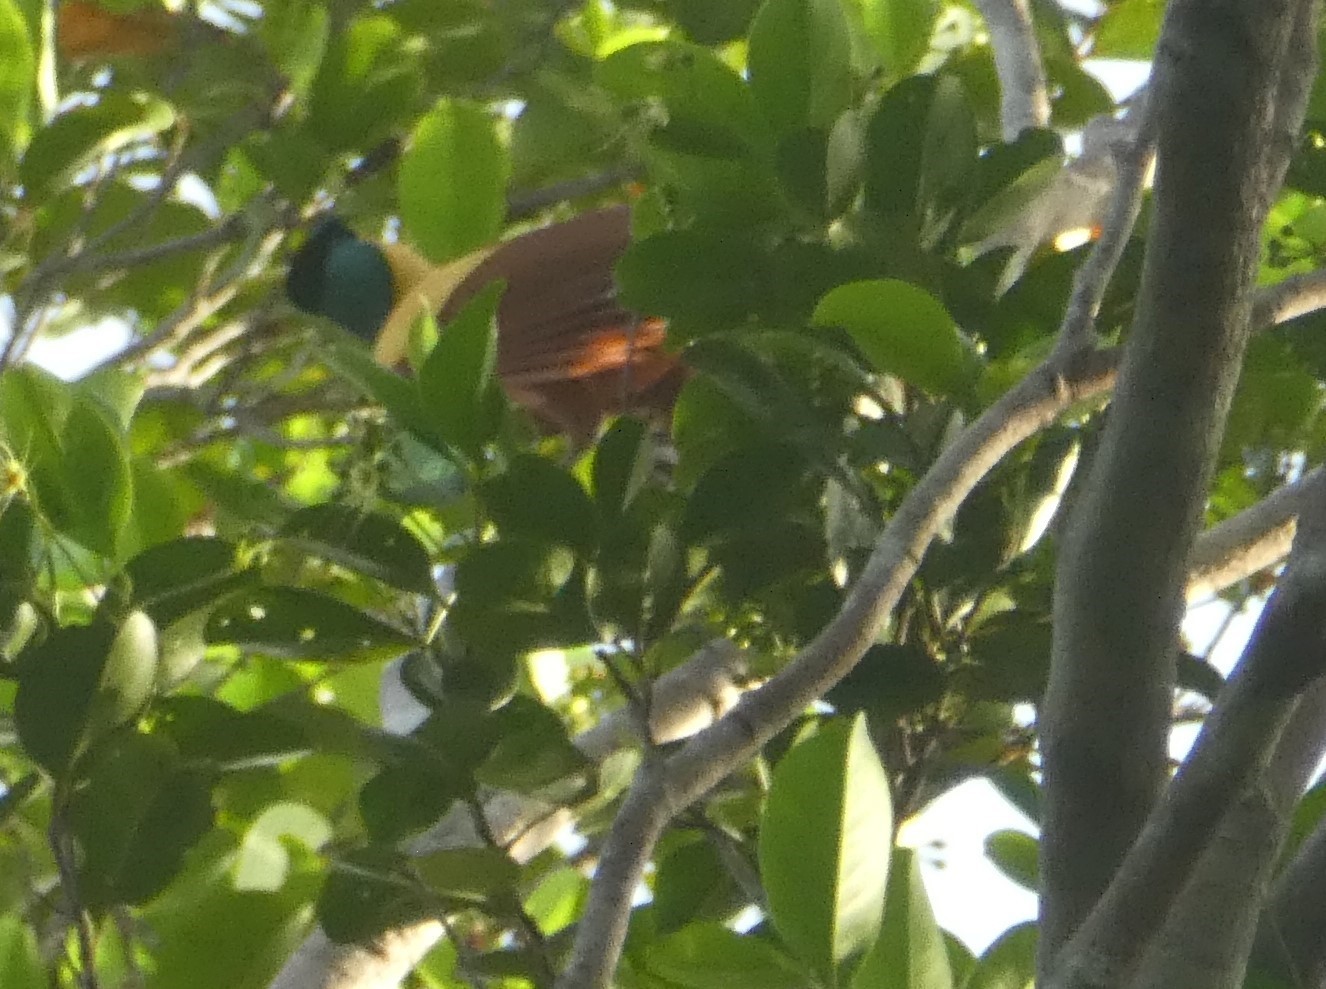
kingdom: Animalia
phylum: Chordata
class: Aves
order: Passeriformes
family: Paradisaeidae
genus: Paradisaea
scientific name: Paradisaea rubra
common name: Red bird-of-paradise
